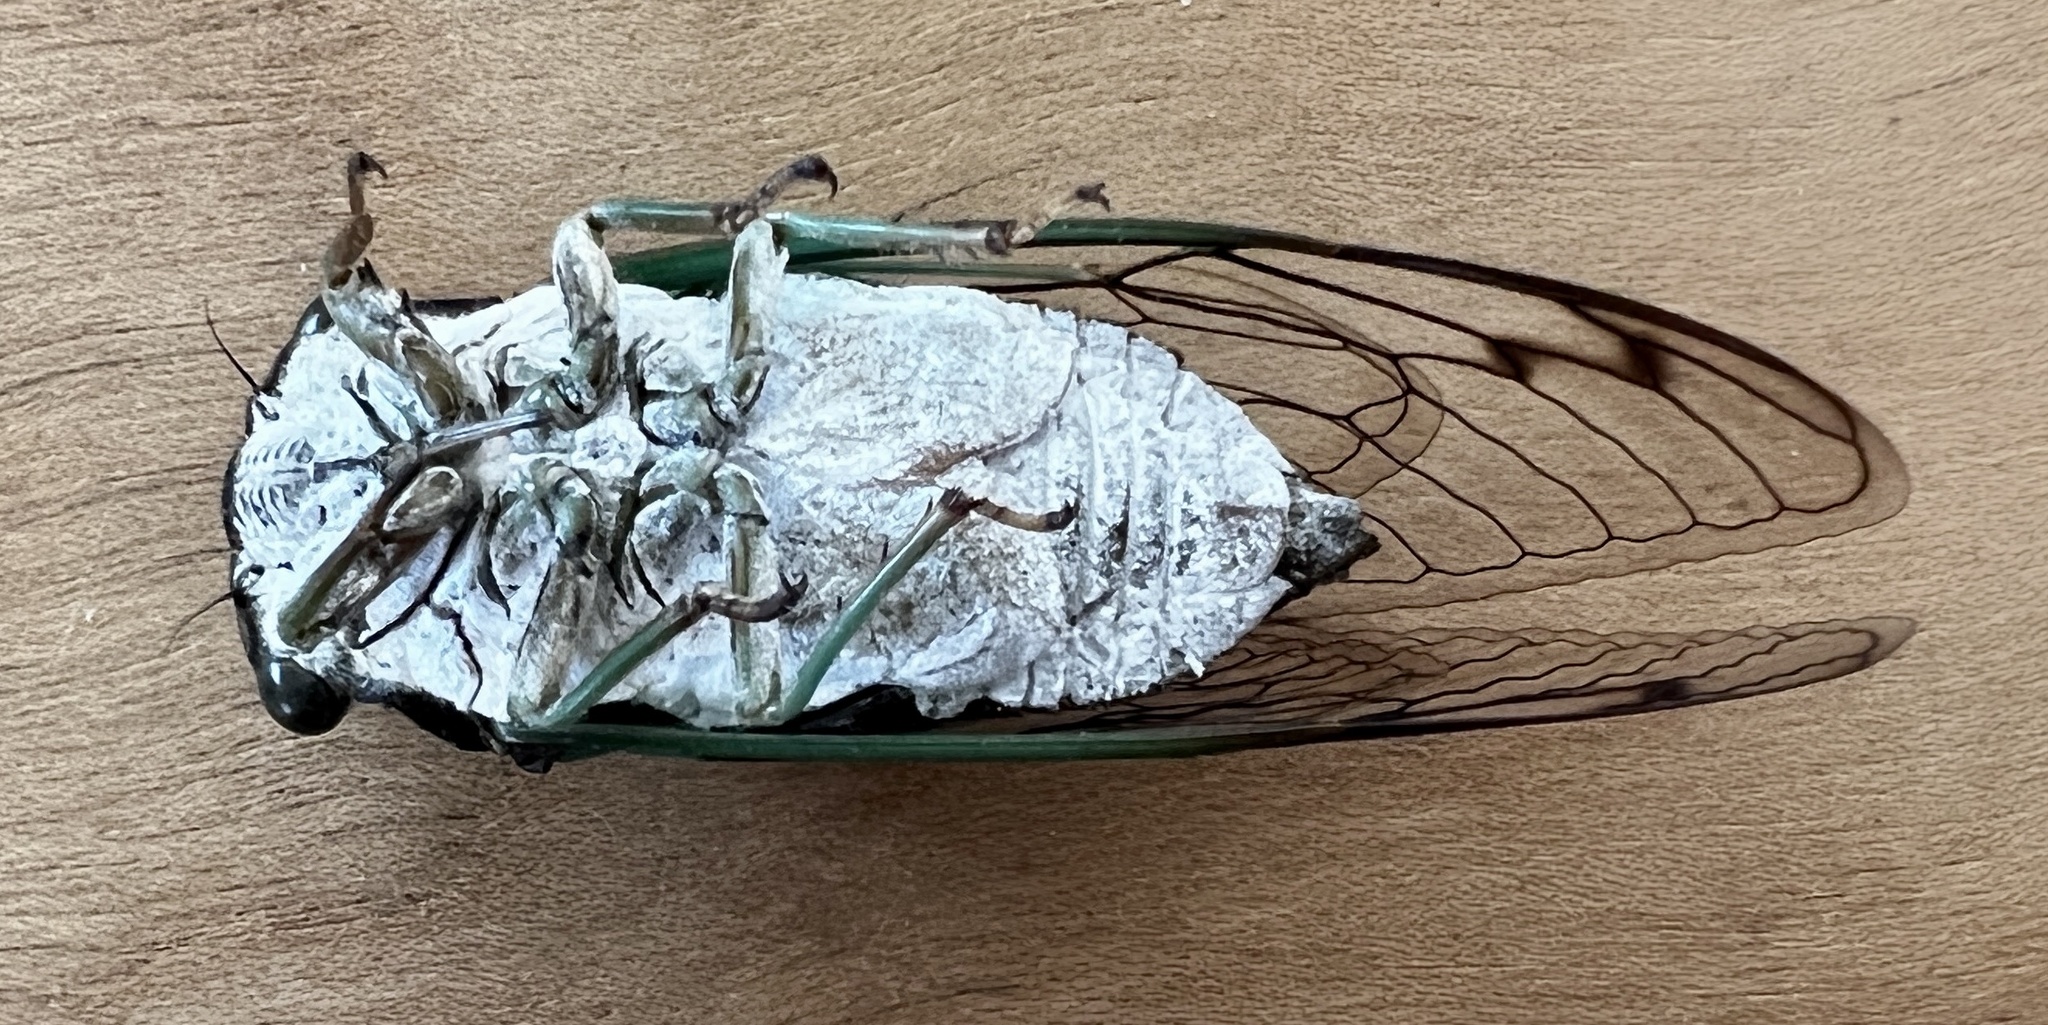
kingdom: Animalia
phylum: Arthropoda
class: Insecta
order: Hemiptera
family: Cicadidae
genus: Neotibicen
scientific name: Neotibicen tibicen
